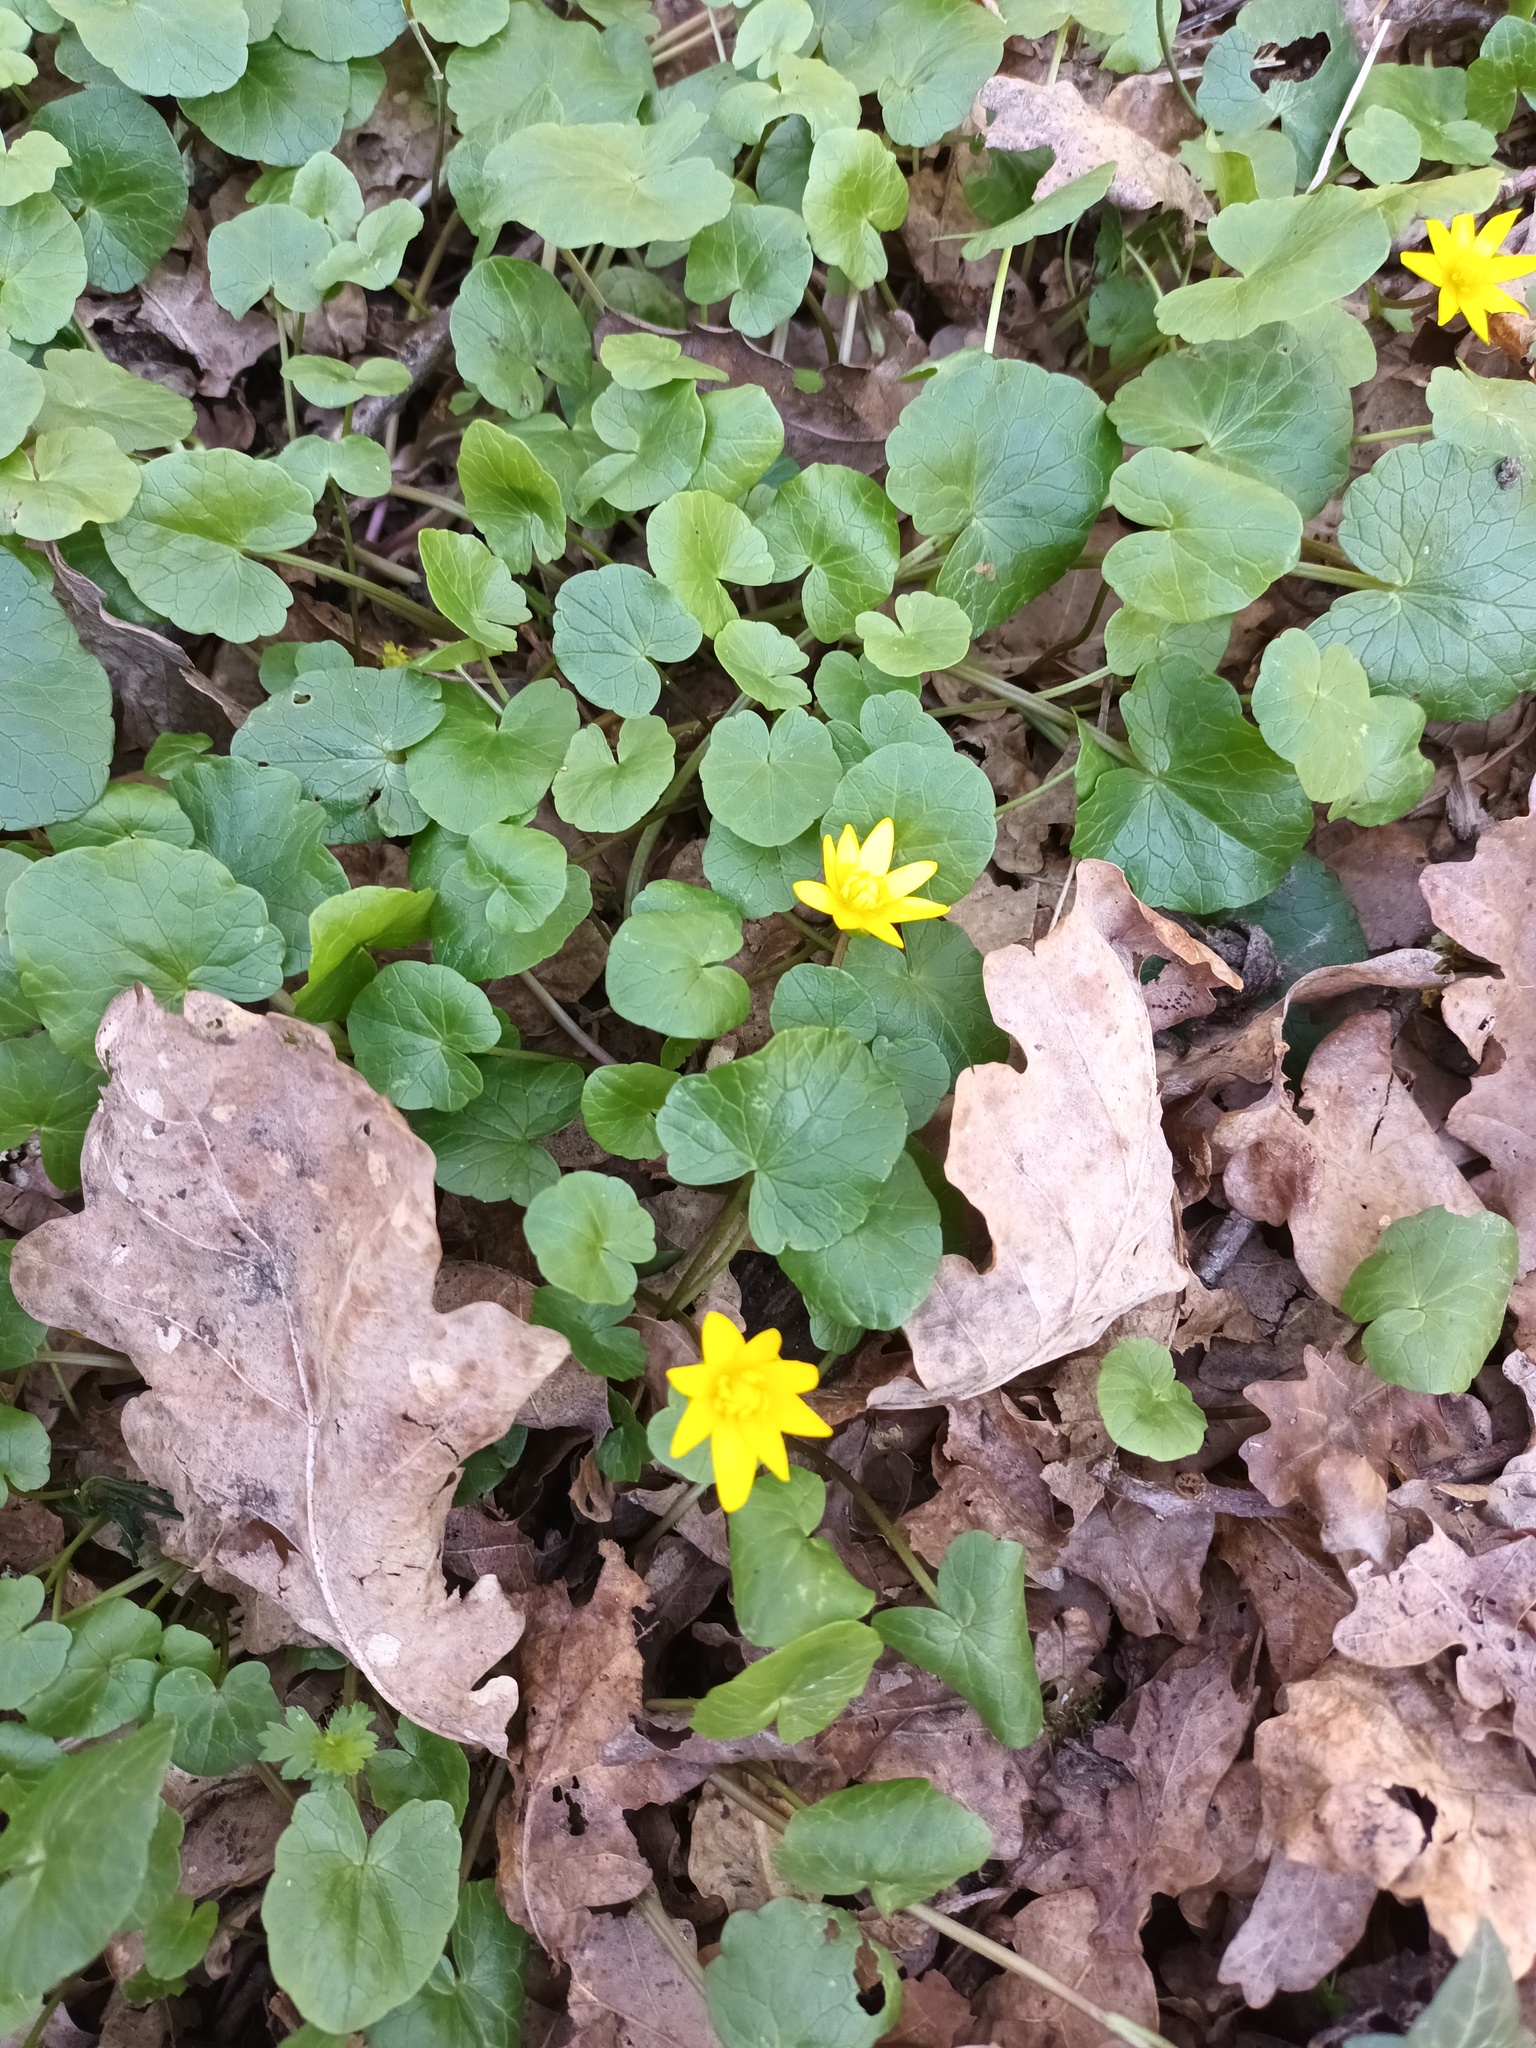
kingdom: Plantae
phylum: Tracheophyta
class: Magnoliopsida
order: Ranunculales
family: Ranunculaceae
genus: Ficaria
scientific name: Ficaria verna
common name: Lesser celandine
